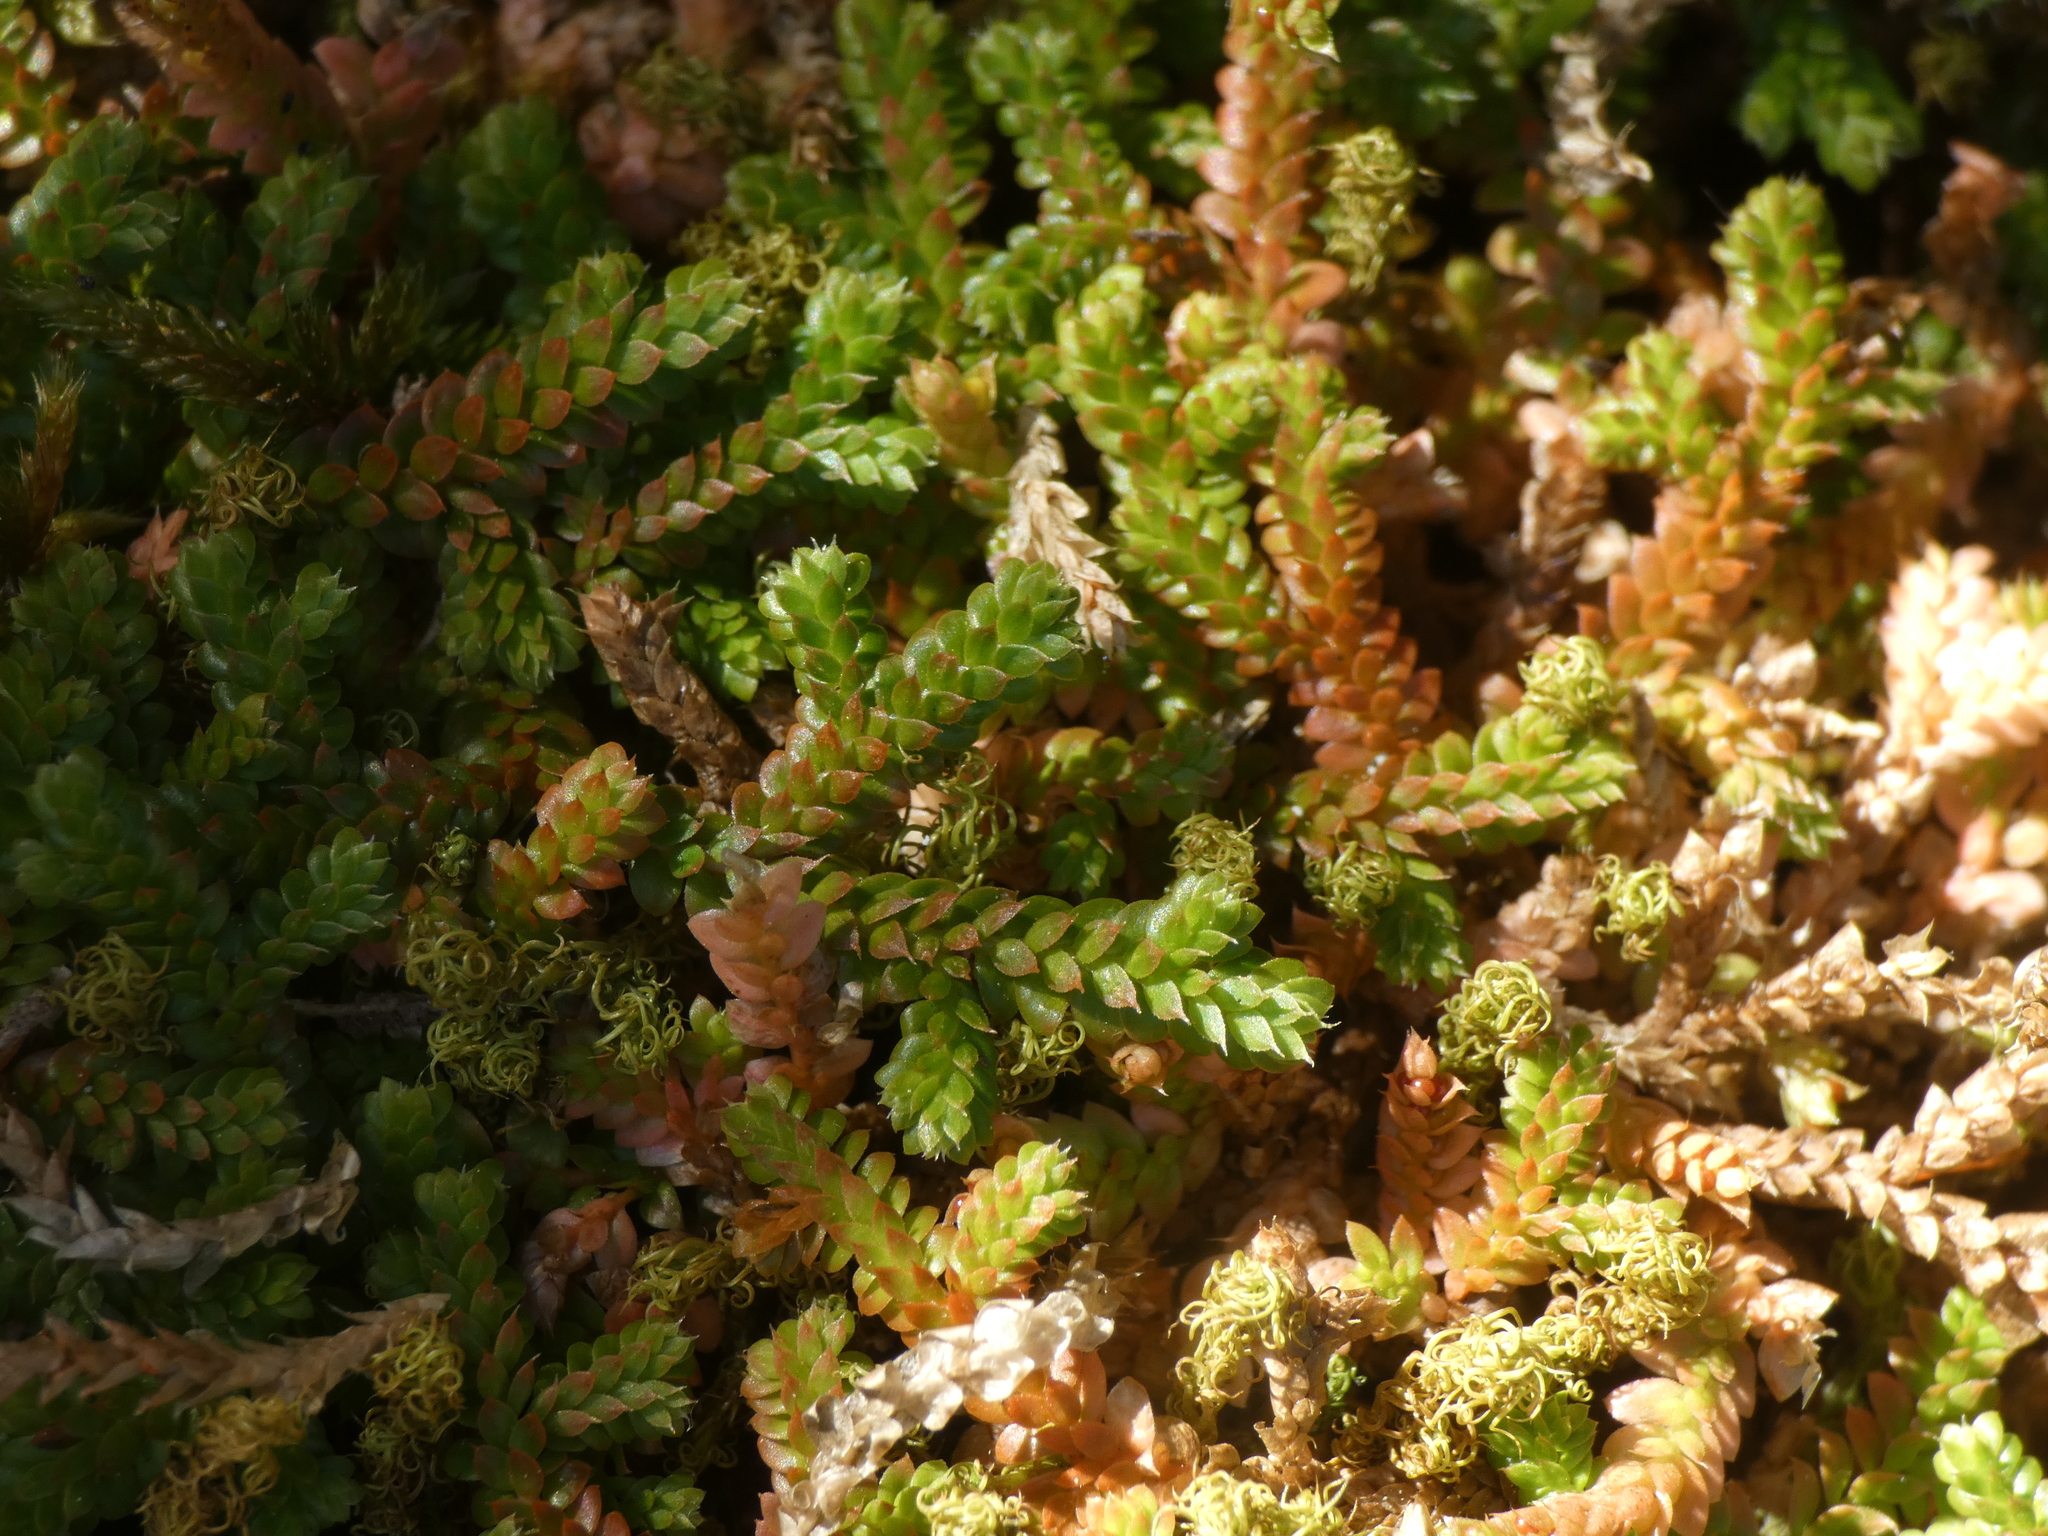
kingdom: Plantae
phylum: Tracheophyta
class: Lycopodiopsida
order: Selaginellales
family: Selaginellaceae
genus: Selaginella
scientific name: Selaginella denticulata
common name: Toothed-leaved clubmoss
